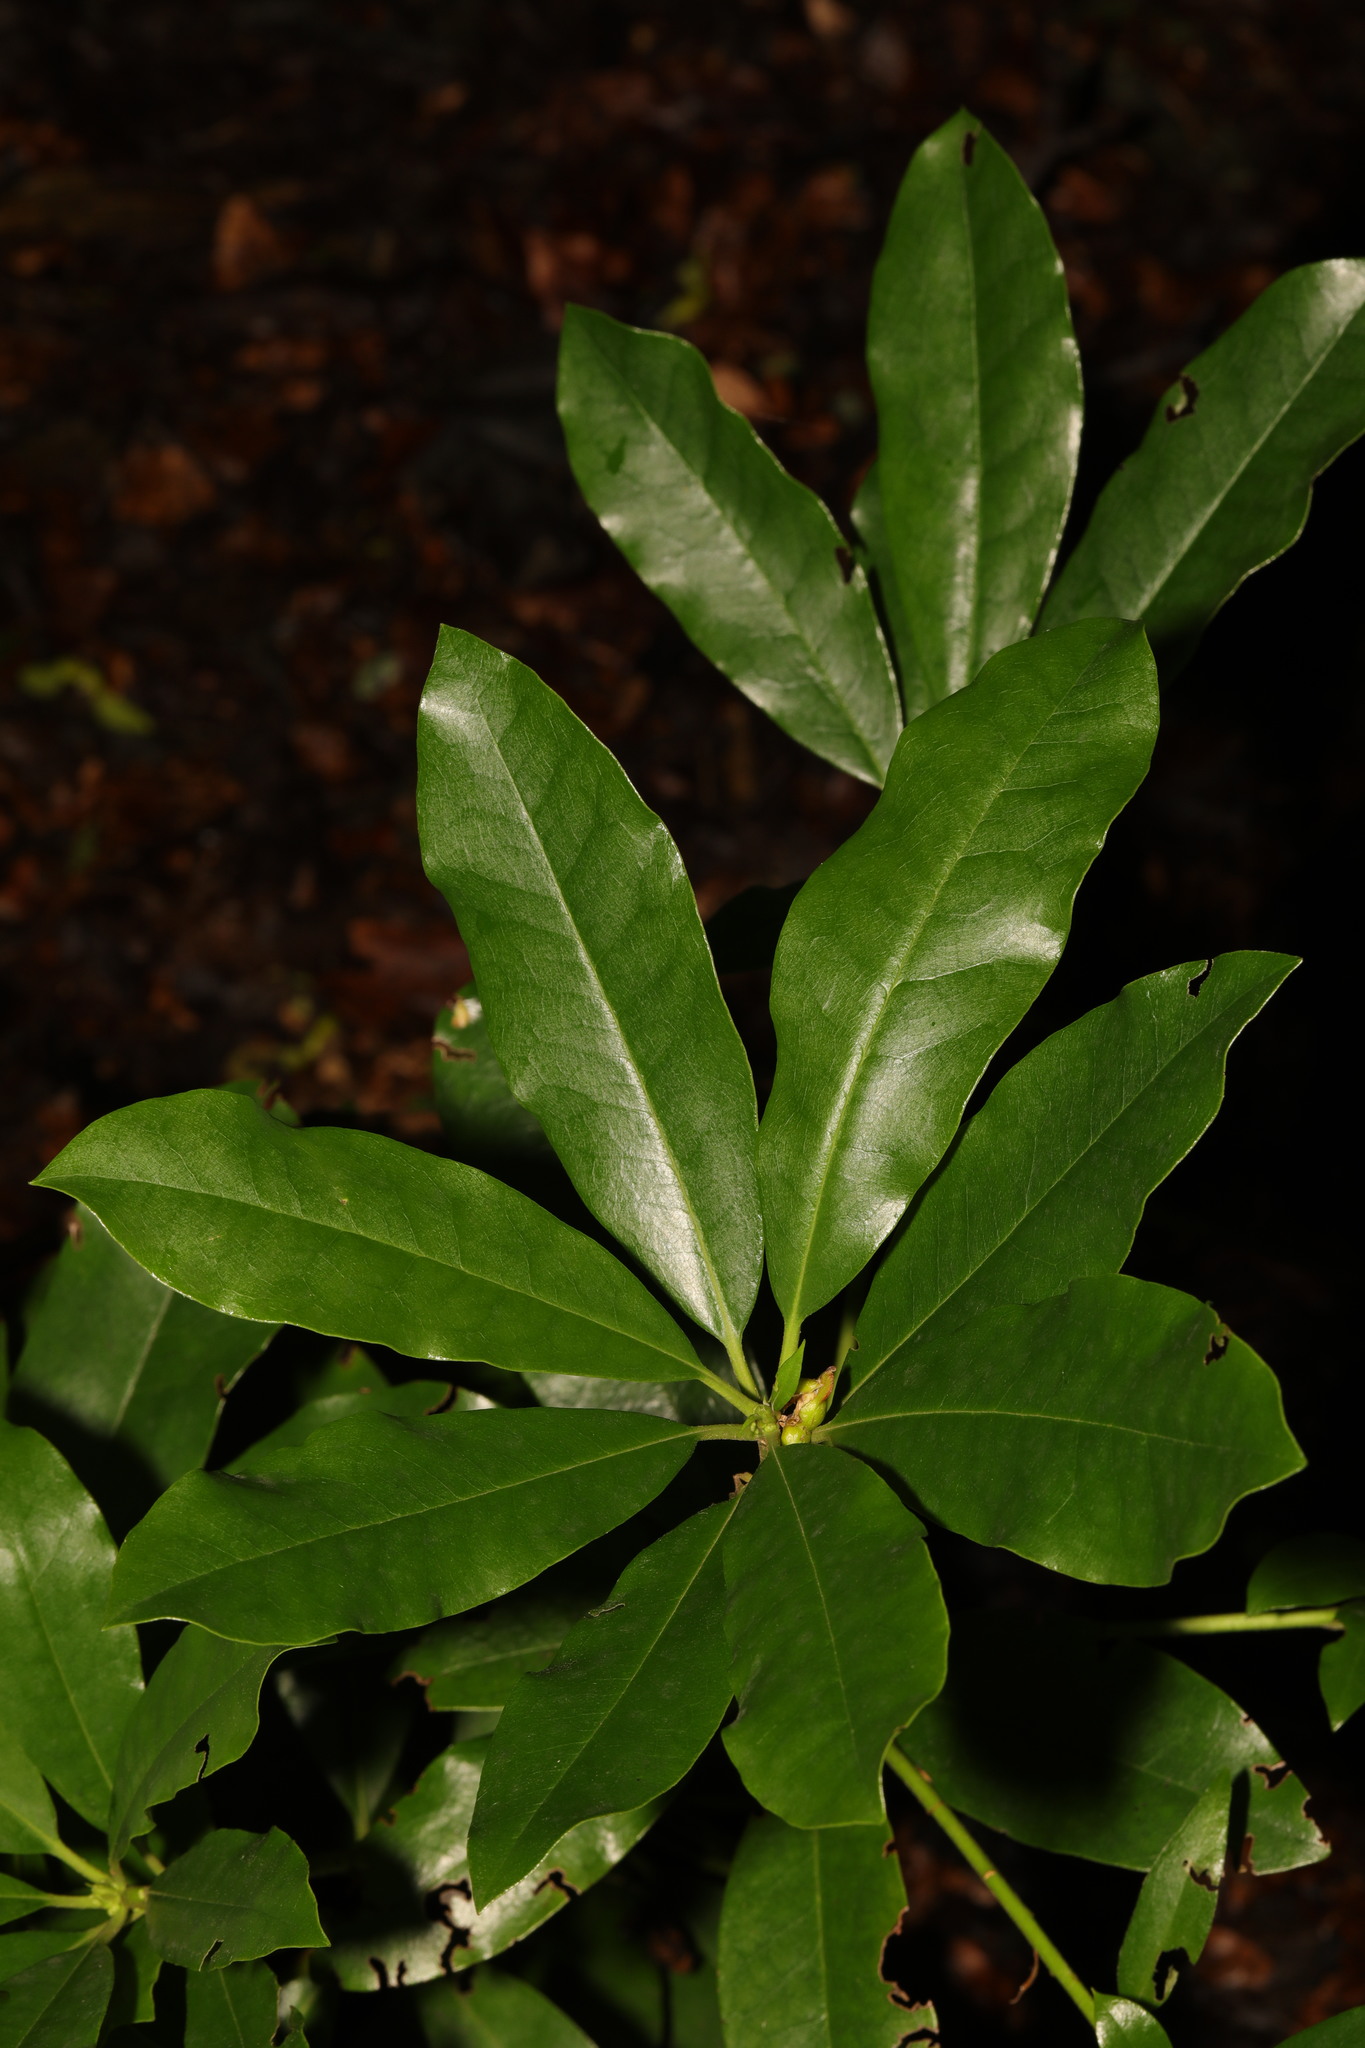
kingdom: Plantae
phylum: Tracheophyta
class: Magnoliopsida
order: Ericales
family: Ericaceae
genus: Rhododendron
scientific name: Rhododendron ponticum
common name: Rhododendron
